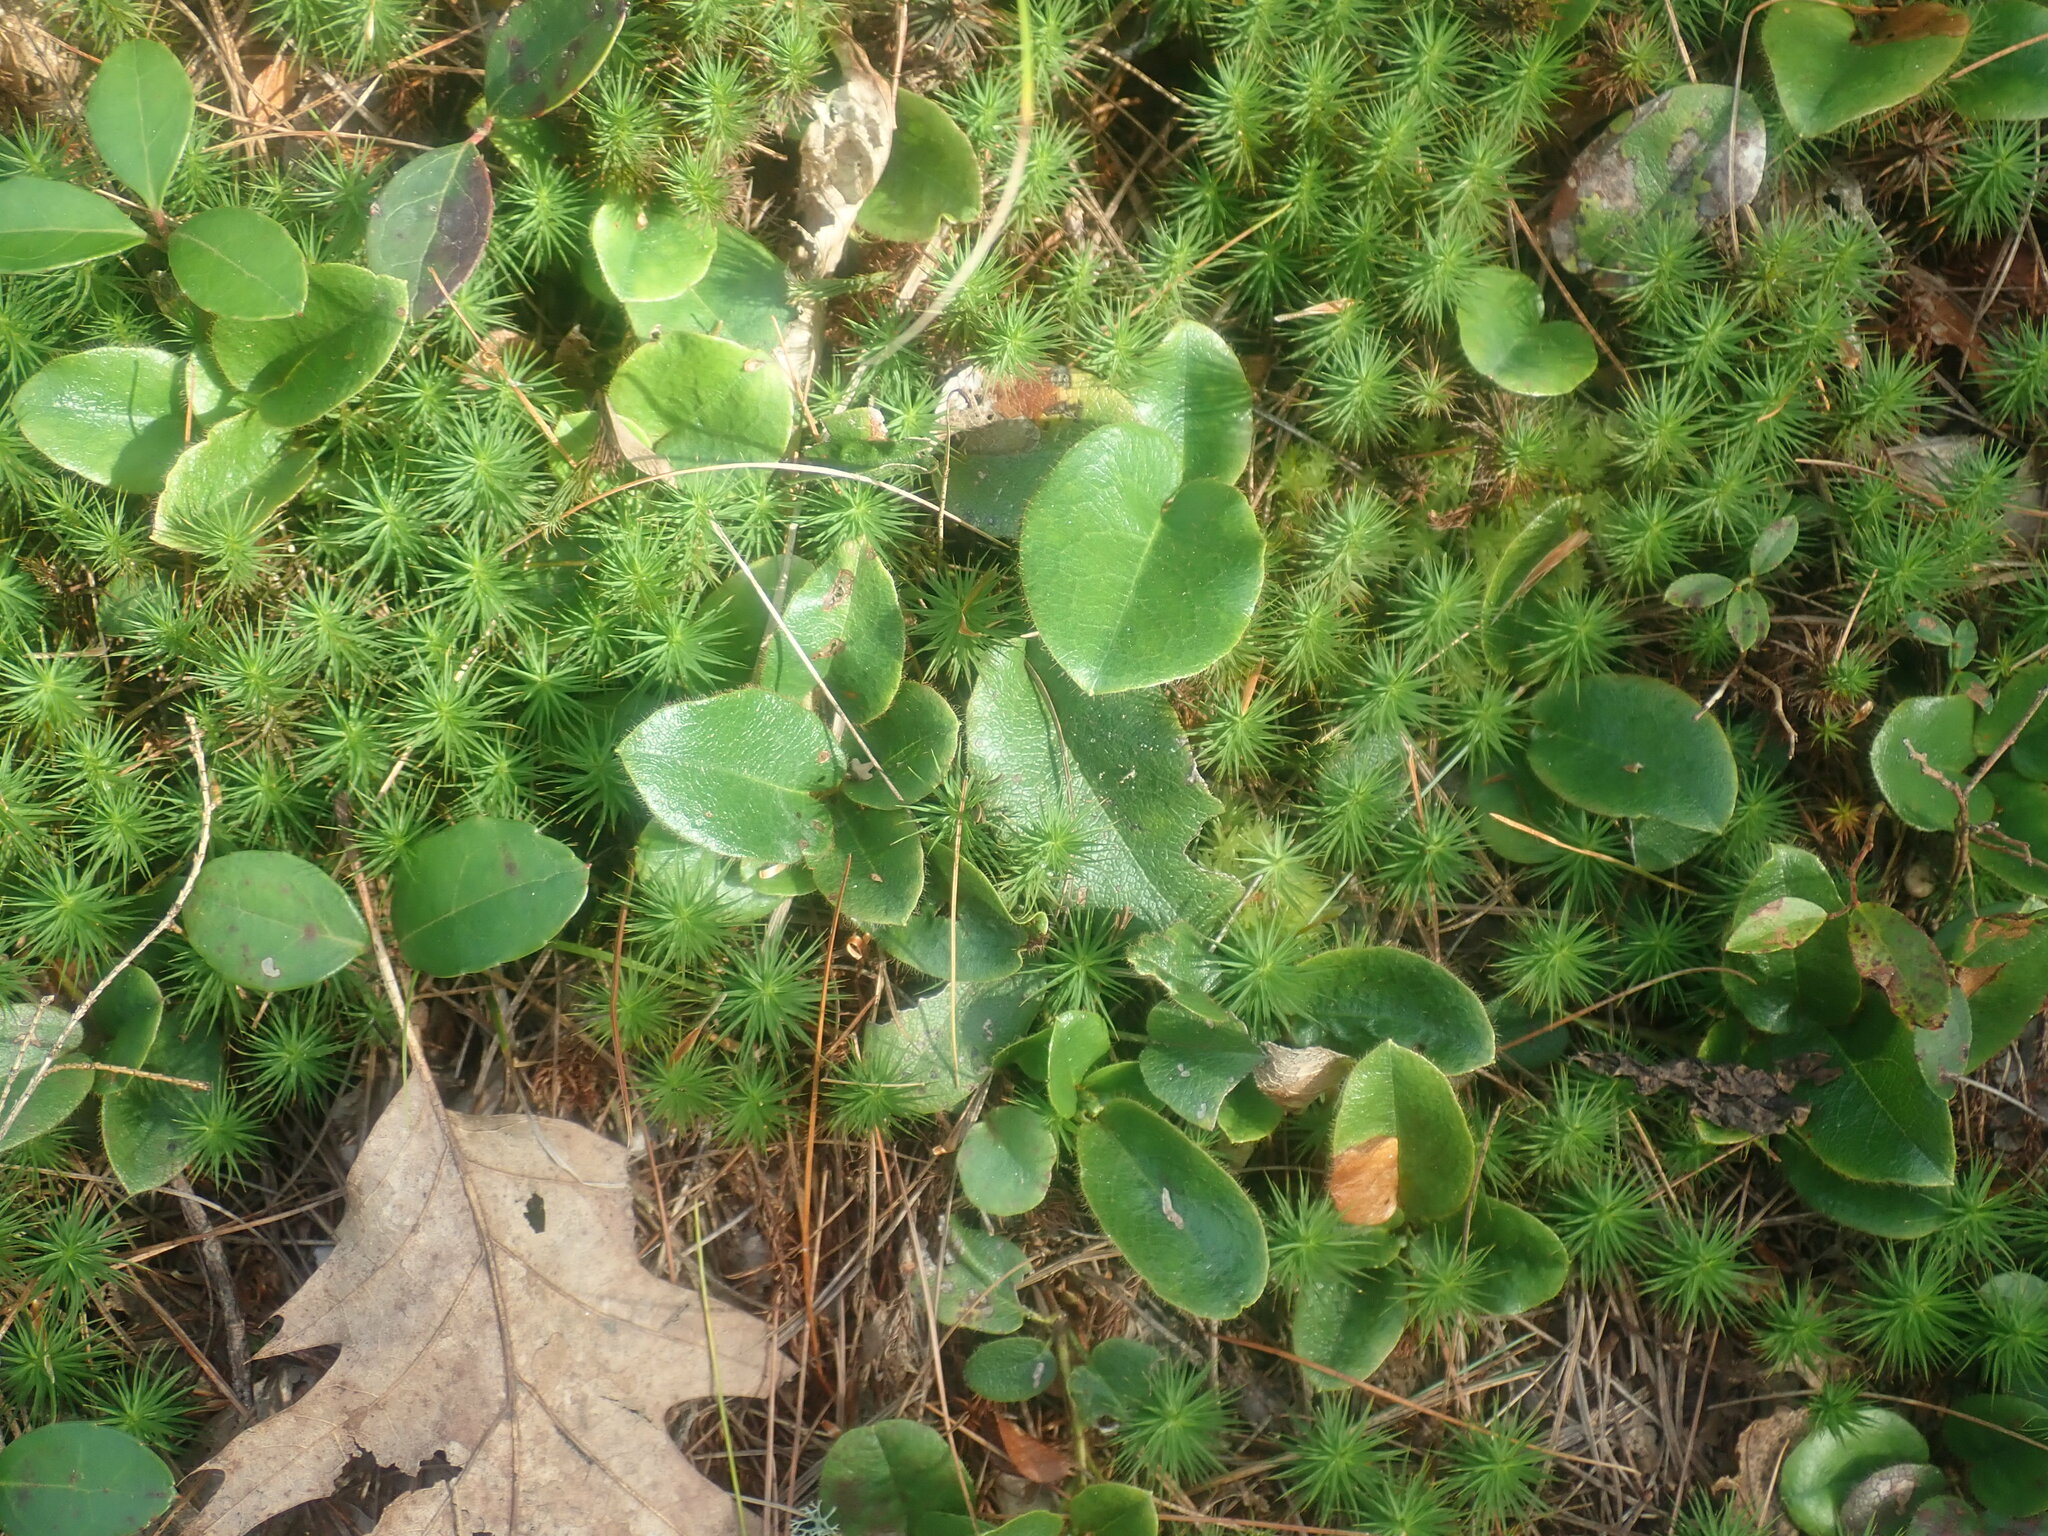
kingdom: Plantae
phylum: Tracheophyta
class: Magnoliopsida
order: Ericales
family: Ericaceae
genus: Epigaea
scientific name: Epigaea repens
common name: Gravelroot
